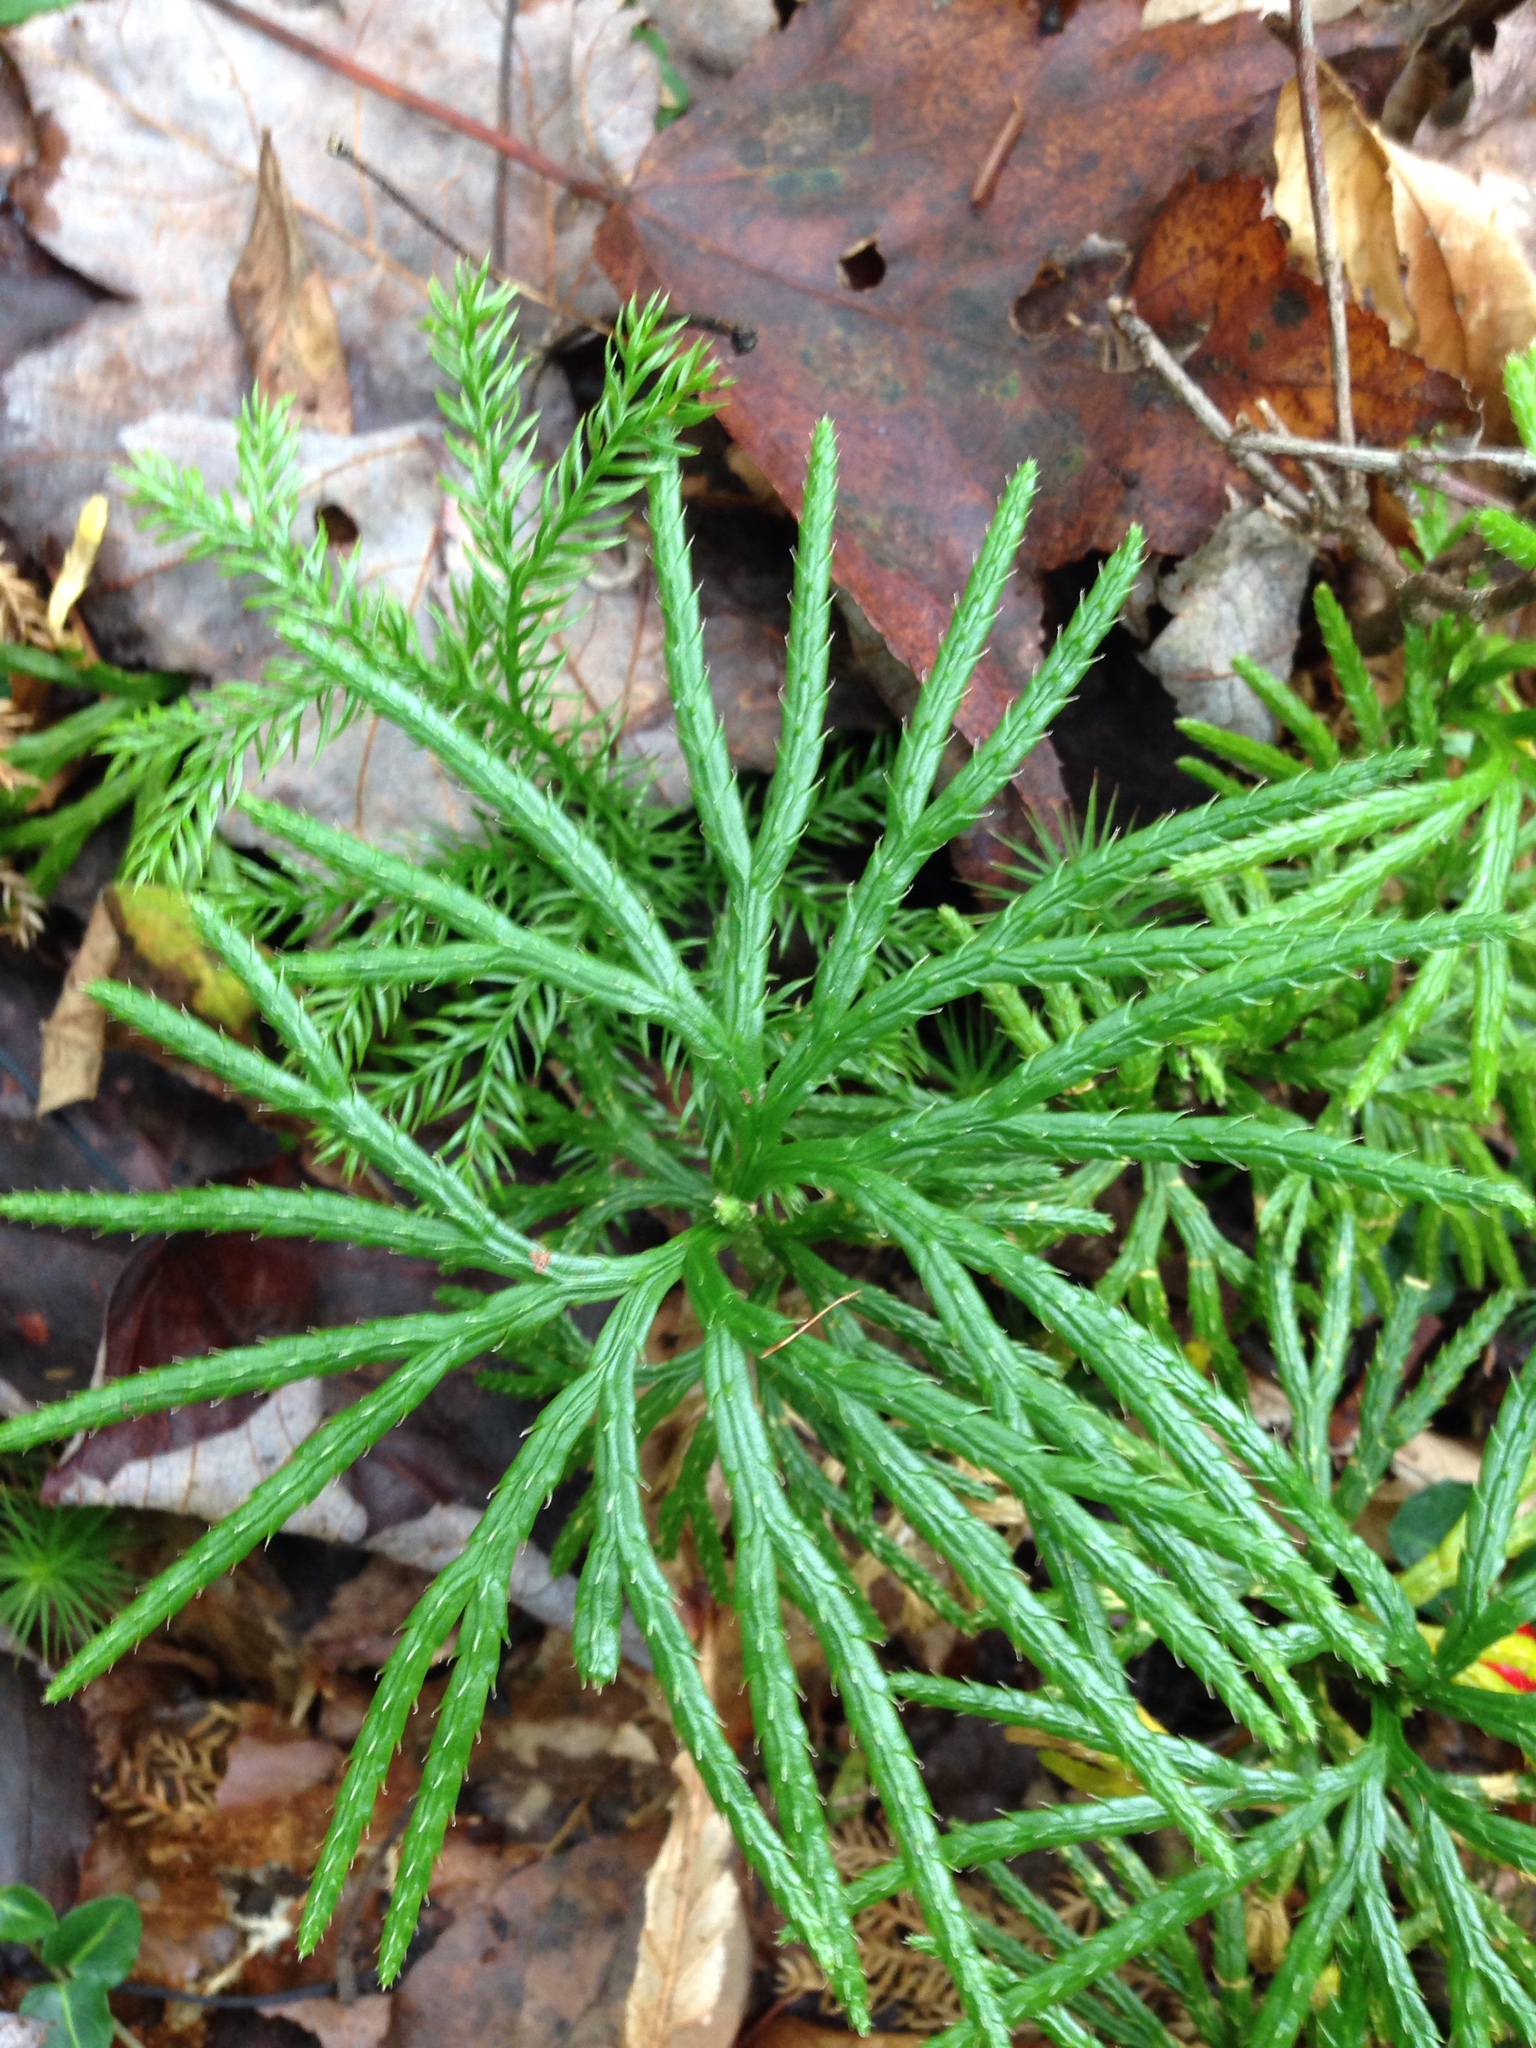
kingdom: Plantae
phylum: Tracheophyta
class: Lycopodiopsida
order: Lycopodiales
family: Lycopodiaceae
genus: Diphasiastrum
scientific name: Diphasiastrum digitatum
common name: Southern running-pine
